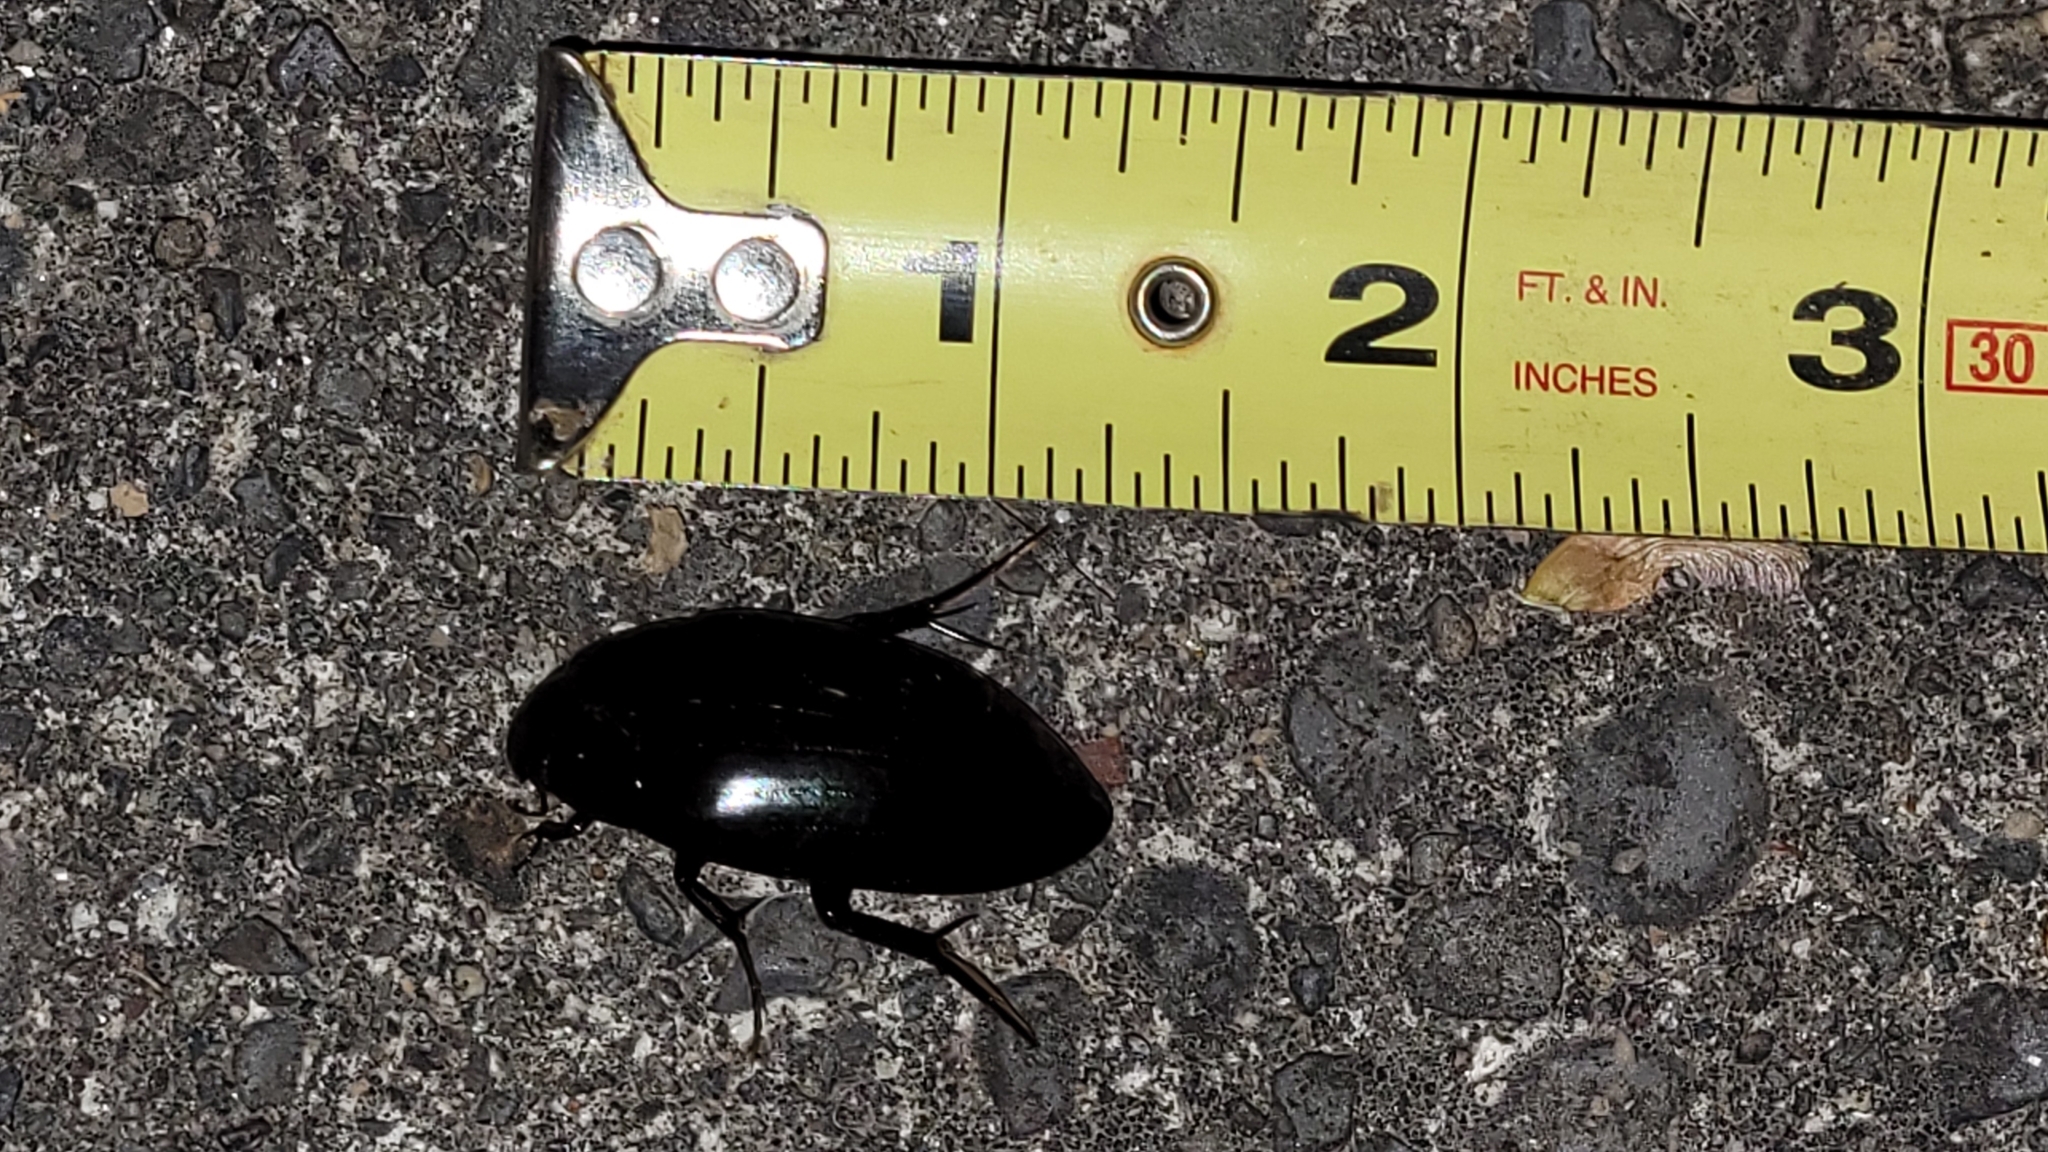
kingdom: Animalia
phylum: Arthropoda
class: Insecta
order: Coleoptera
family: Hydrophilidae
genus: Hydrophilus
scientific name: Hydrophilus triangularis
